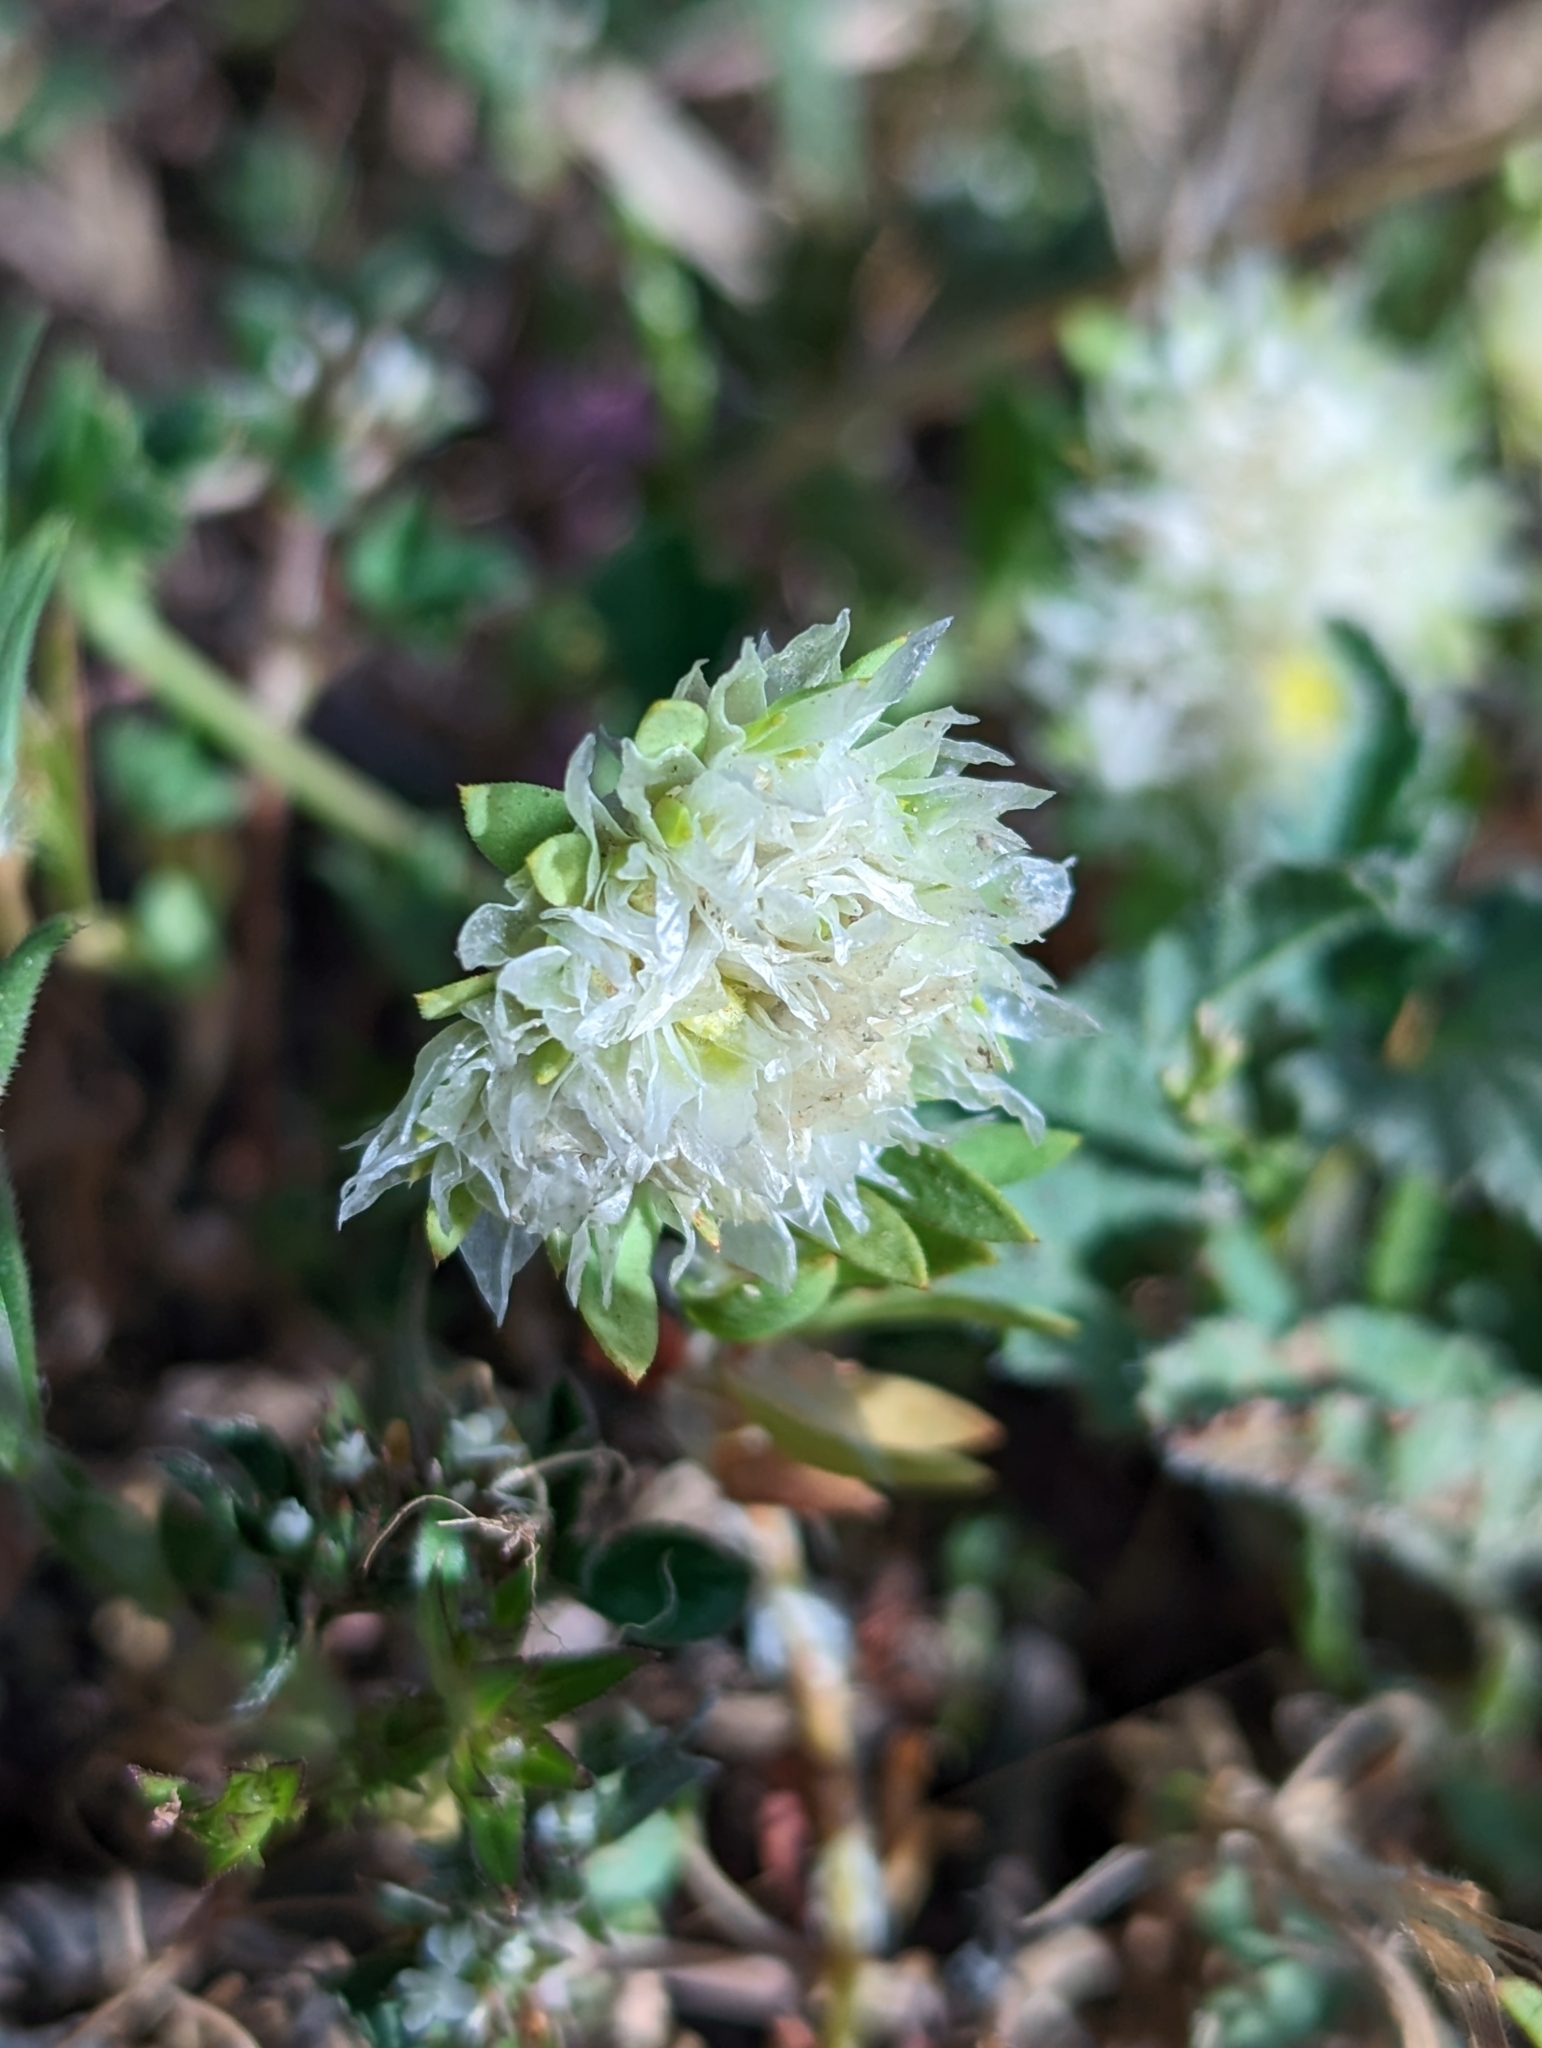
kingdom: Plantae
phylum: Tracheophyta
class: Magnoliopsida
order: Caryophyllales
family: Caryophyllaceae
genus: Paronychia
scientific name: Paronychia argentea
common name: Silver nailroot
